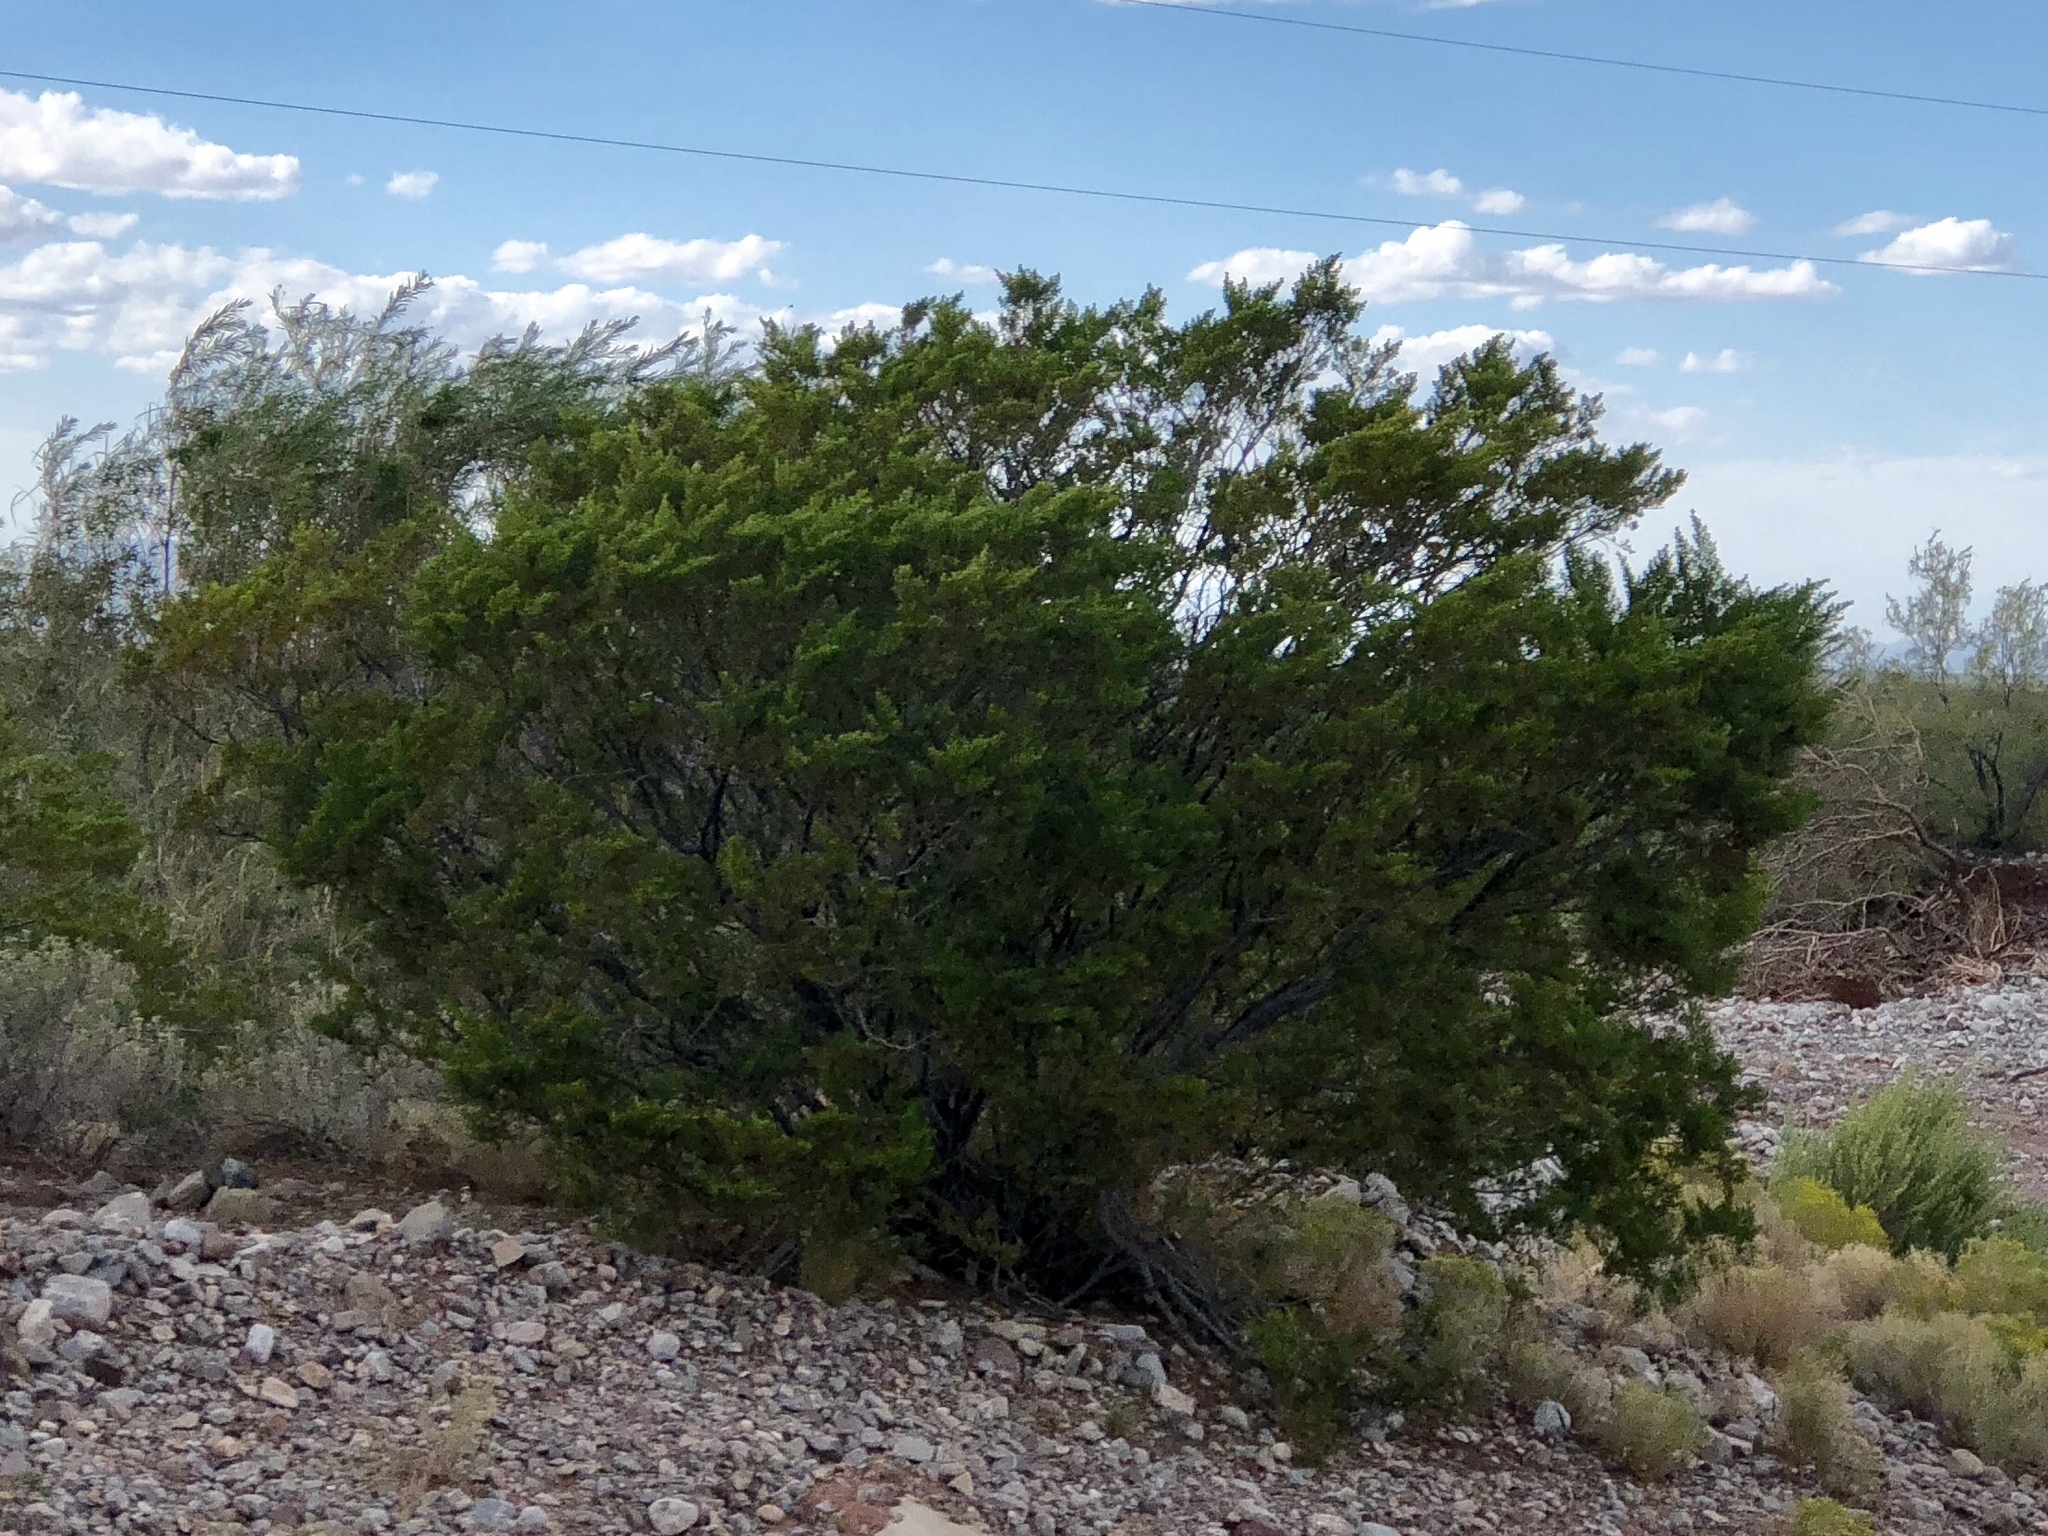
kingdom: Plantae
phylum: Tracheophyta
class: Magnoliopsida
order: Zygophyllales
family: Zygophyllaceae
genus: Larrea
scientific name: Larrea tridentata
